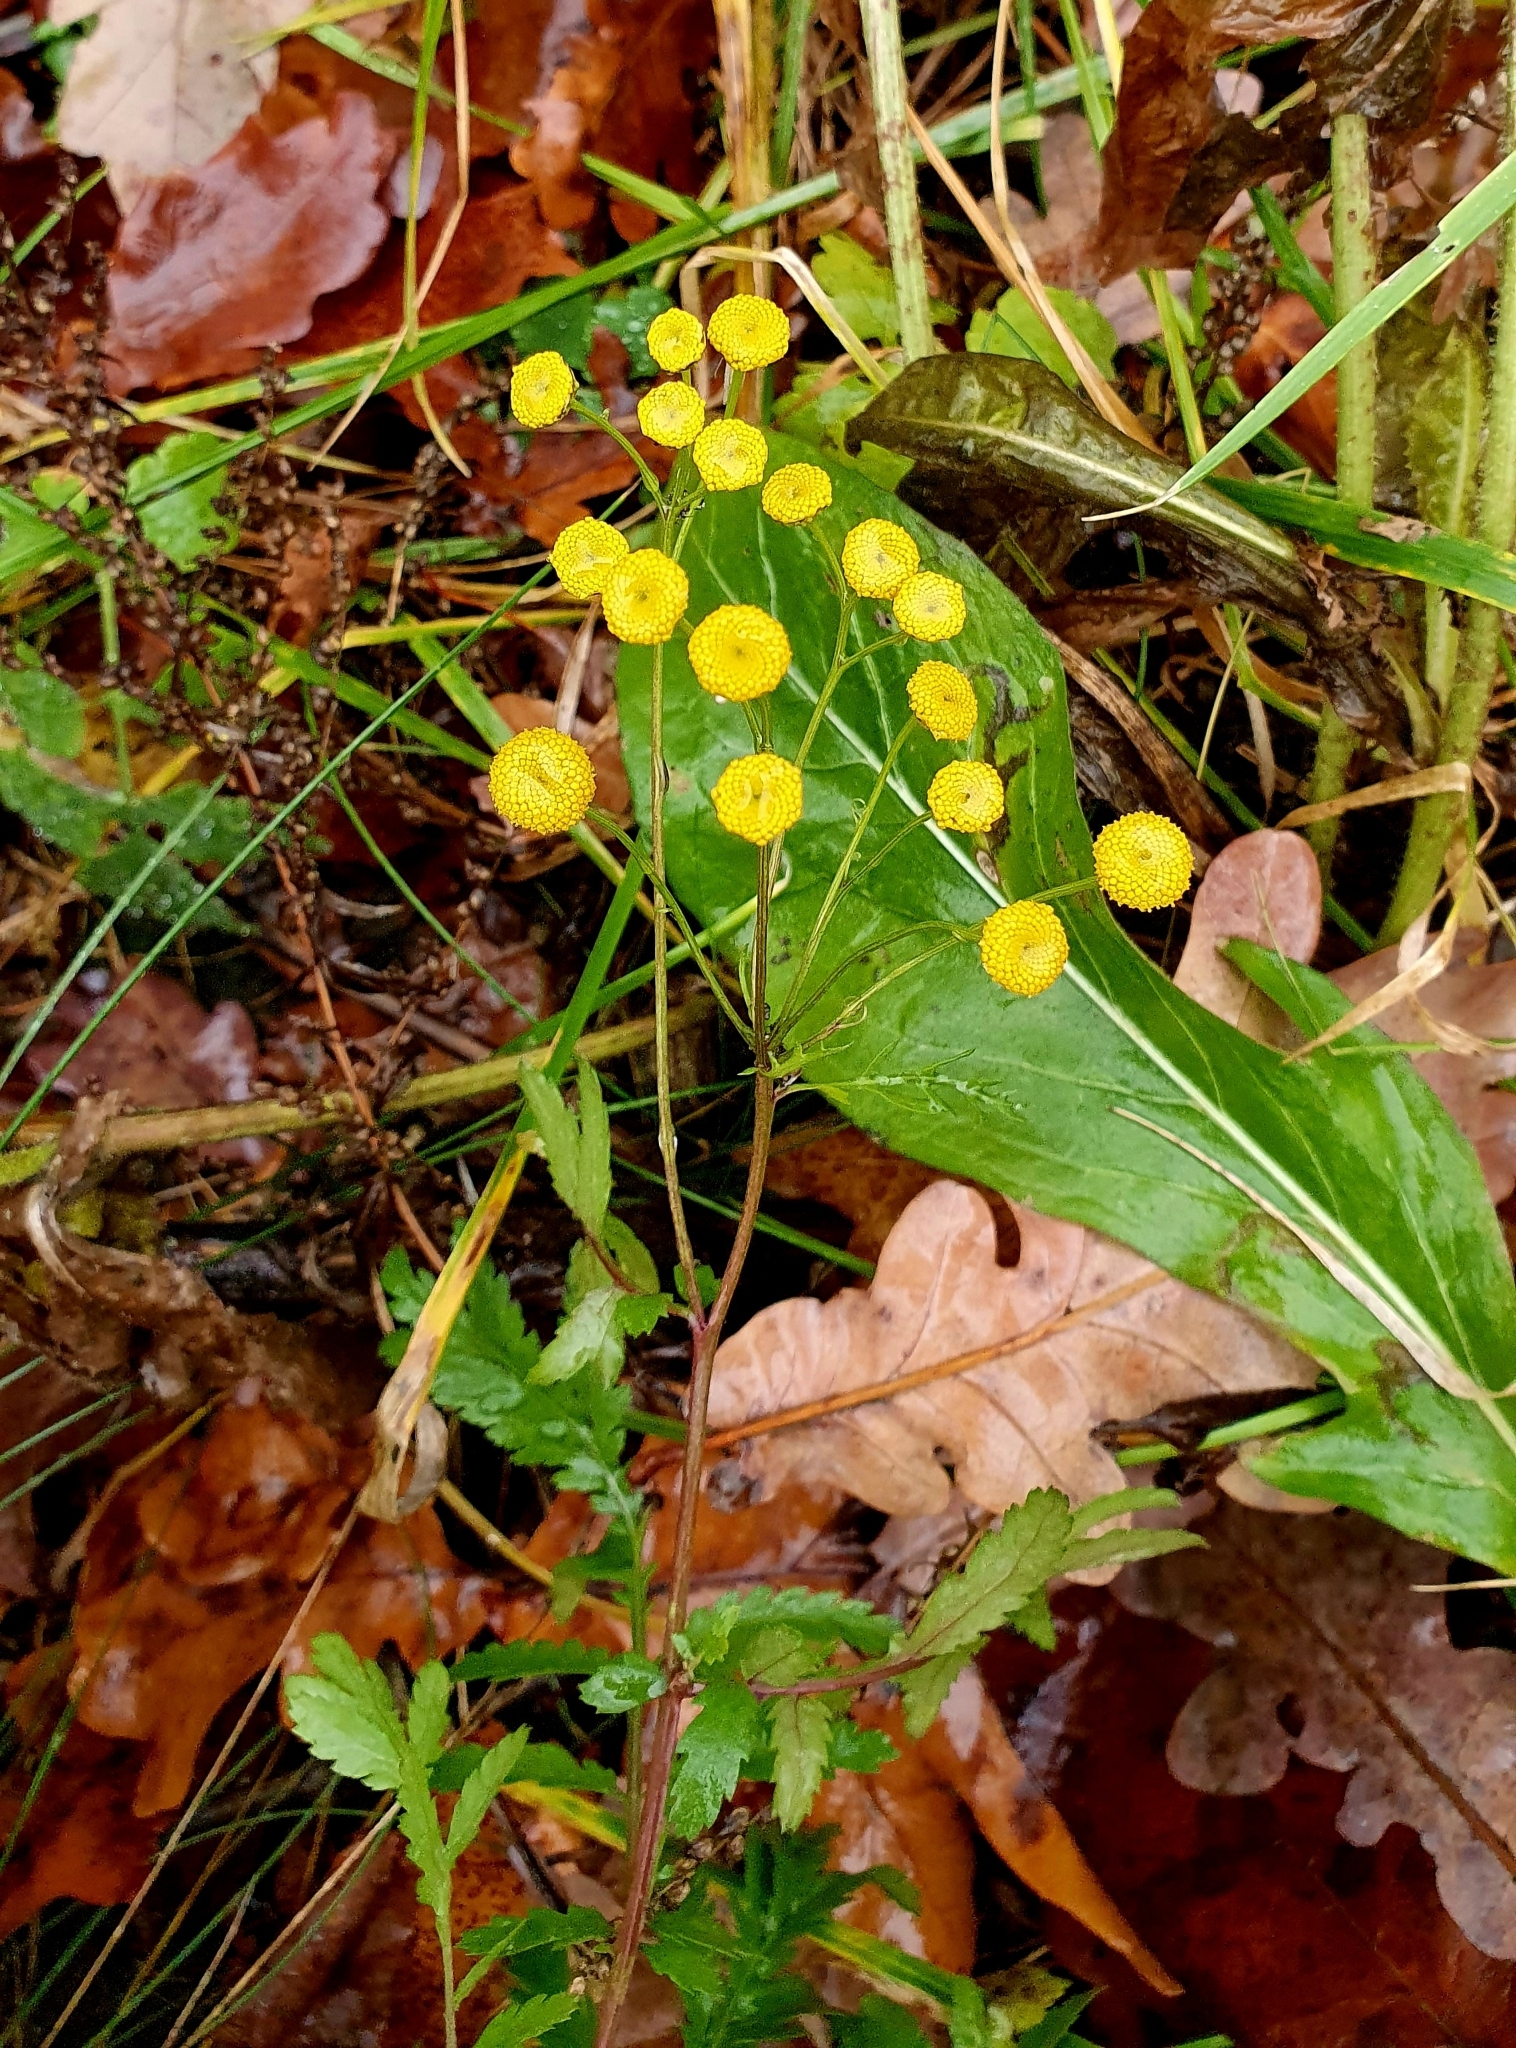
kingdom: Plantae
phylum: Tracheophyta
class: Magnoliopsida
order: Asterales
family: Asteraceae
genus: Tanacetum
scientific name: Tanacetum vulgare
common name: Common tansy
